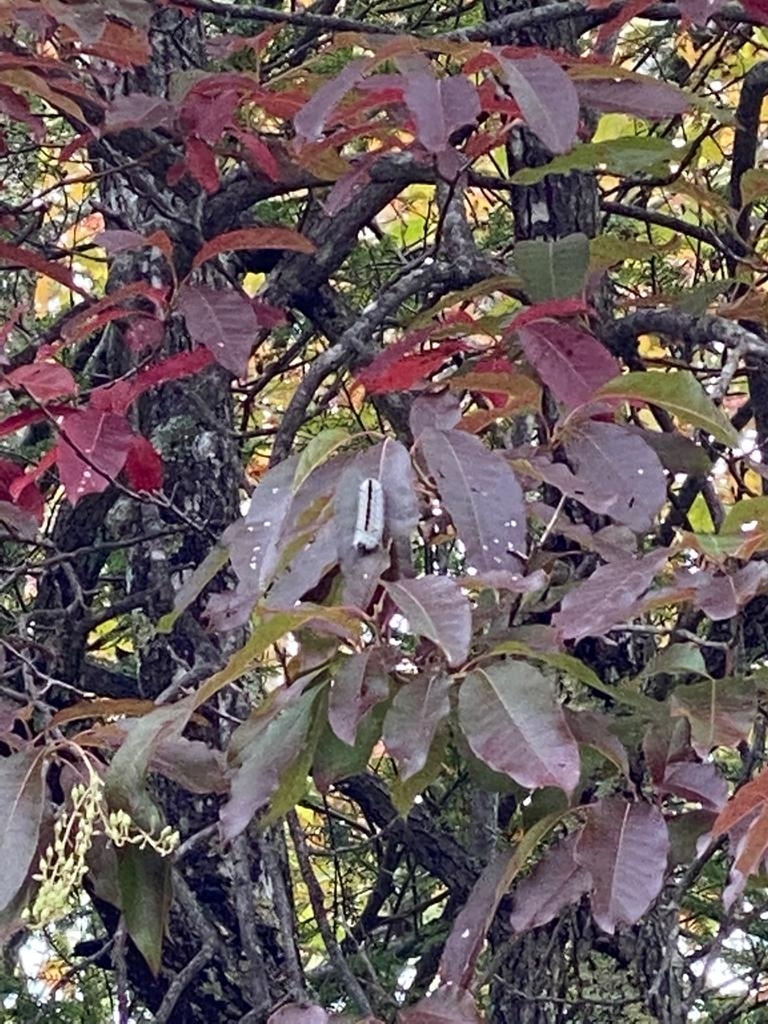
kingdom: Animalia
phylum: Arthropoda
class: Insecta
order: Lepidoptera
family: Erebidae
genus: Lophocampa
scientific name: Lophocampa caryae
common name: Hickory tussock moth
